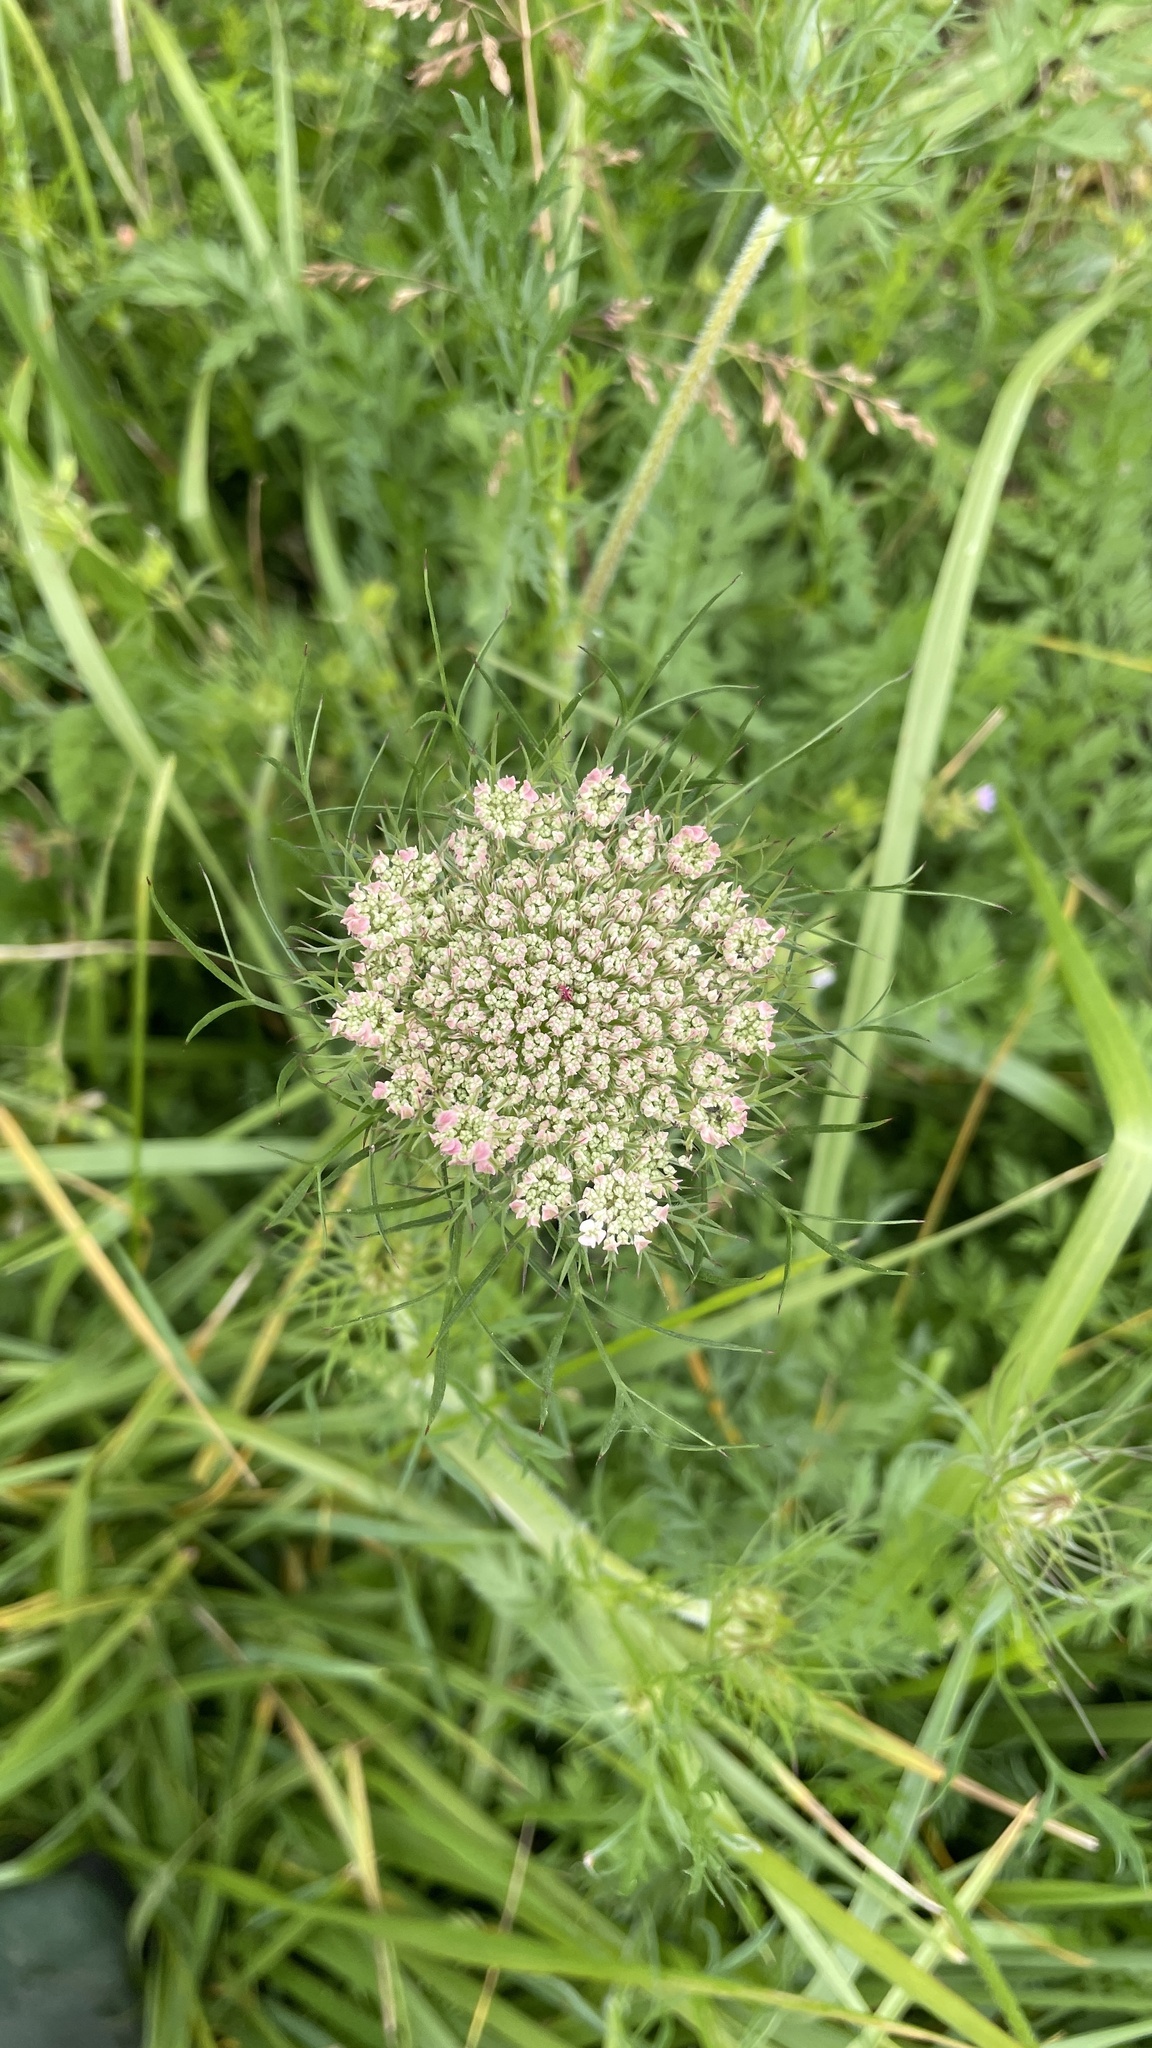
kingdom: Plantae
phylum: Tracheophyta
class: Magnoliopsida
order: Apiales
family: Apiaceae
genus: Daucus
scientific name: Daucus carota
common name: Wild carrot
